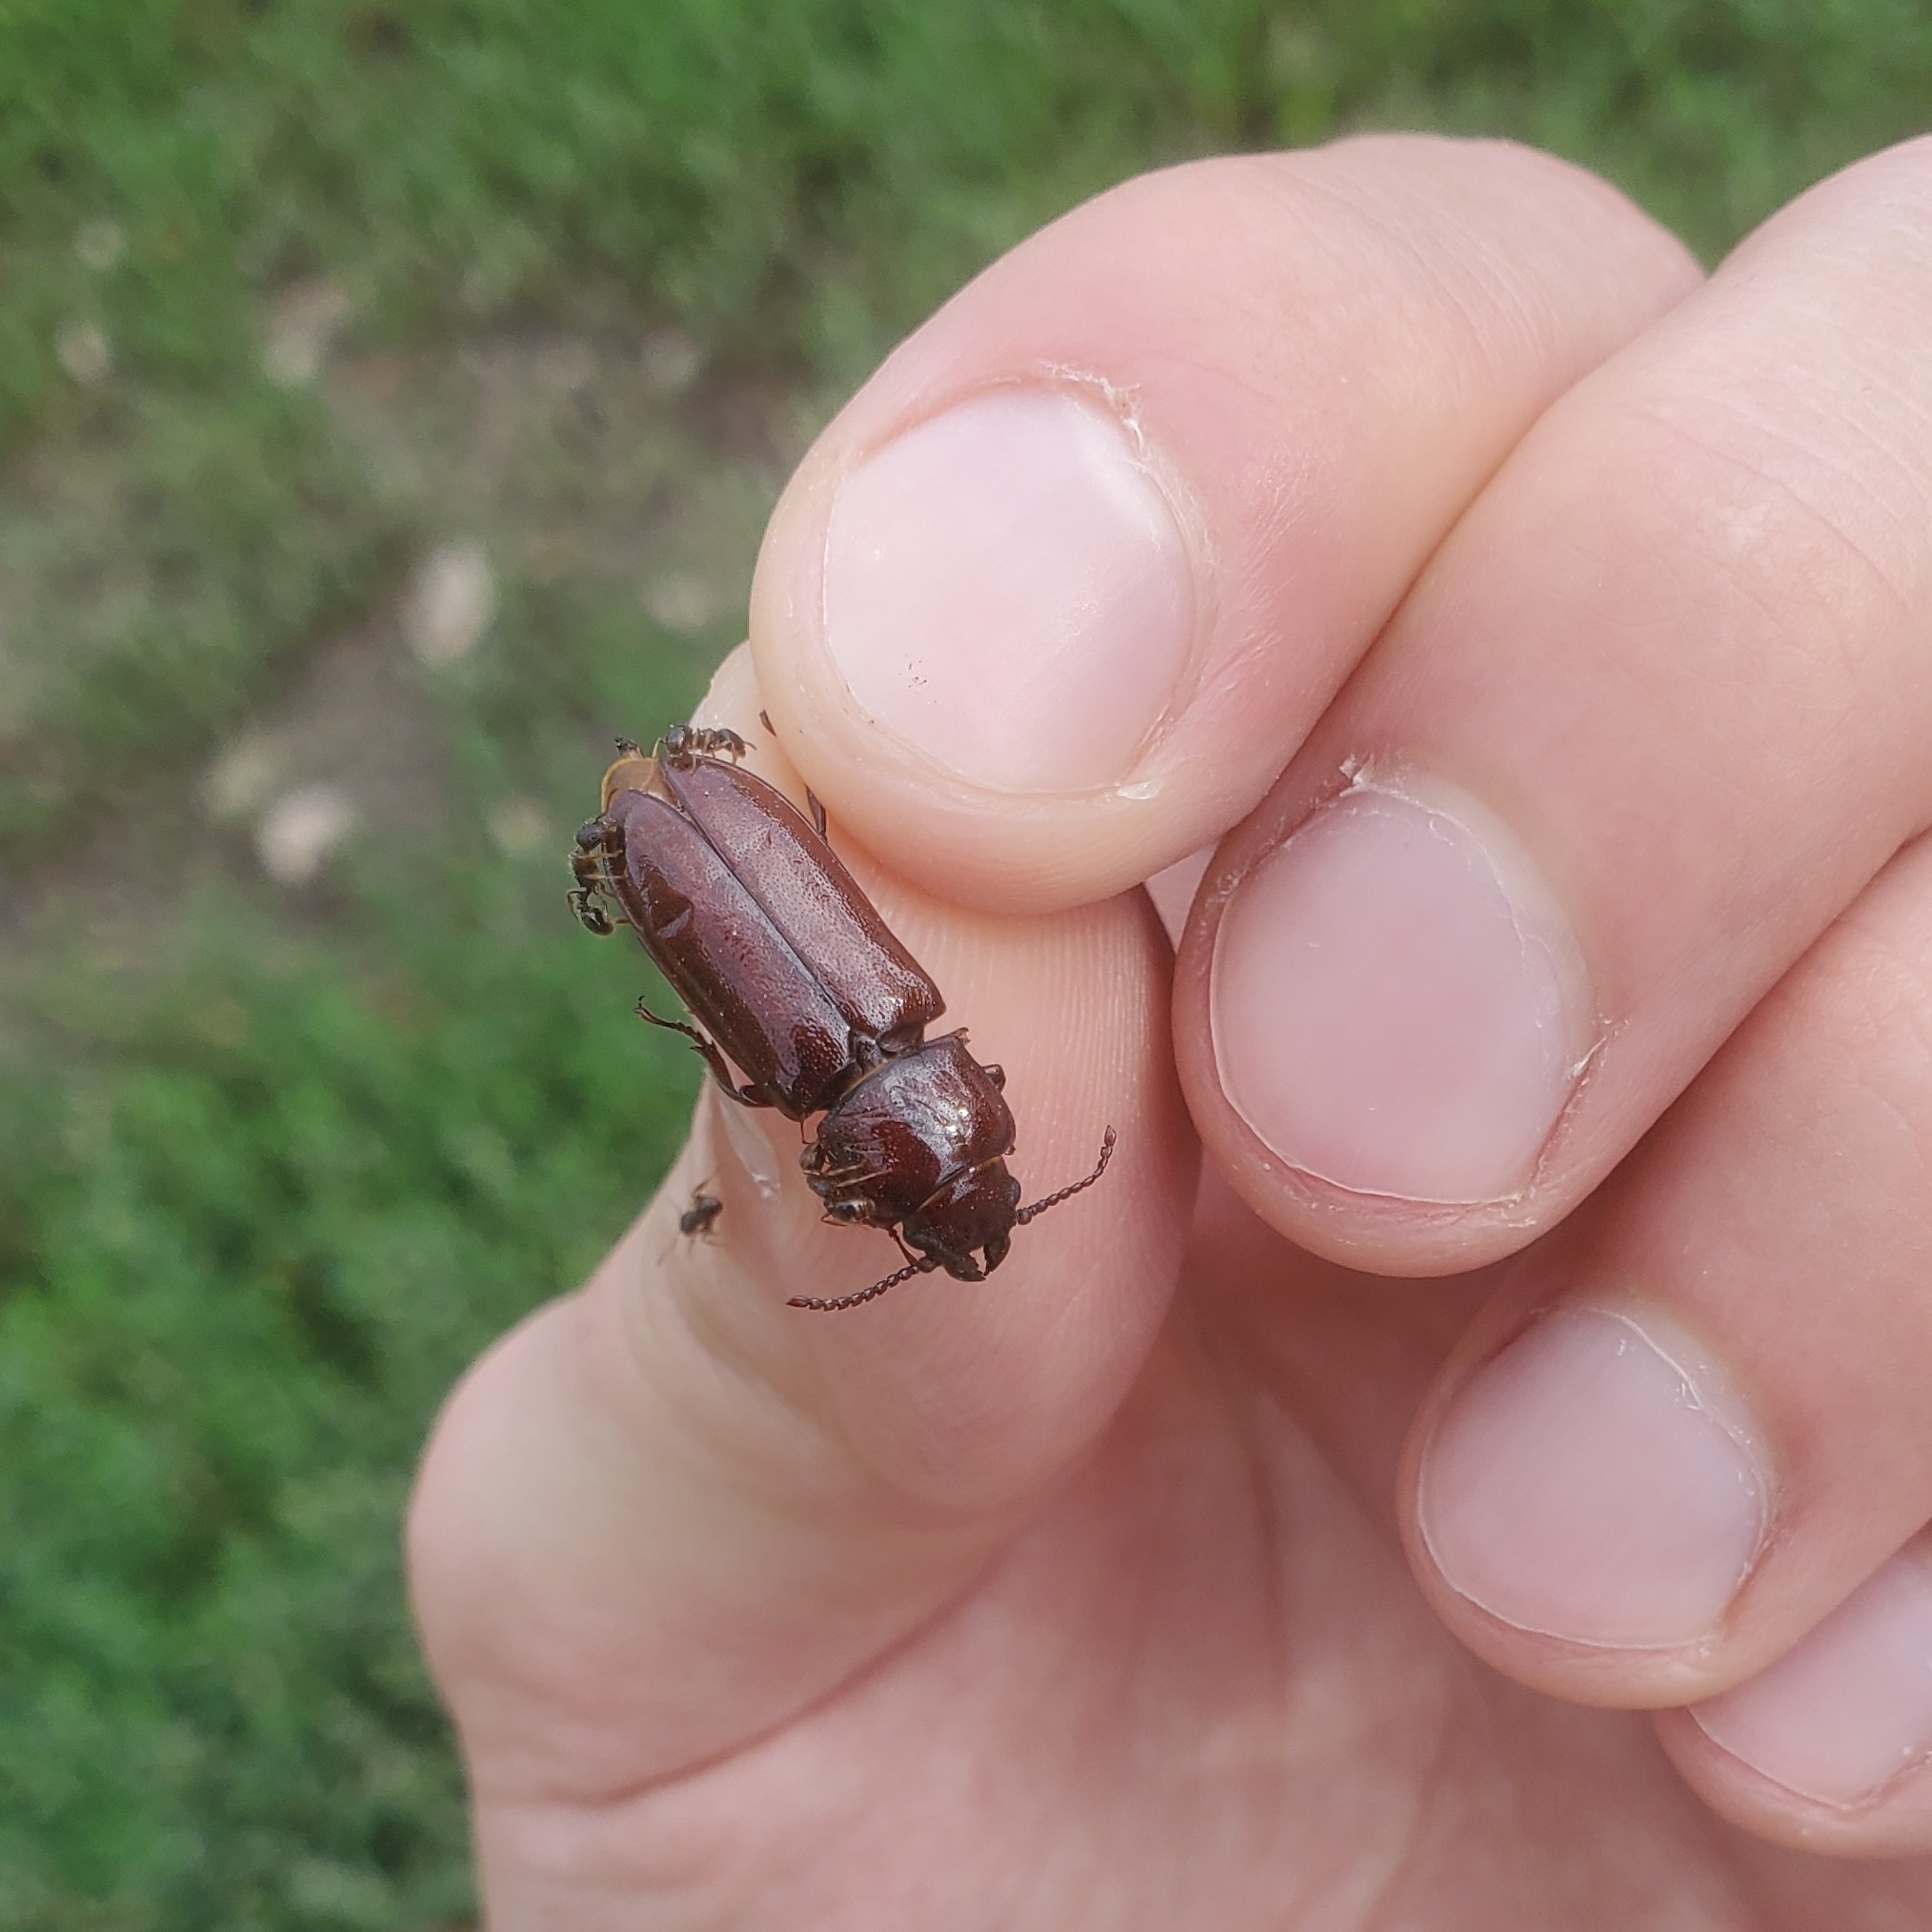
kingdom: Animalia
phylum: Arthropoda
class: Insecta
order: Coleoptera
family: Cerambycidae
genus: Neandra
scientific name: Neandra brunnea
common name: Pole borer
